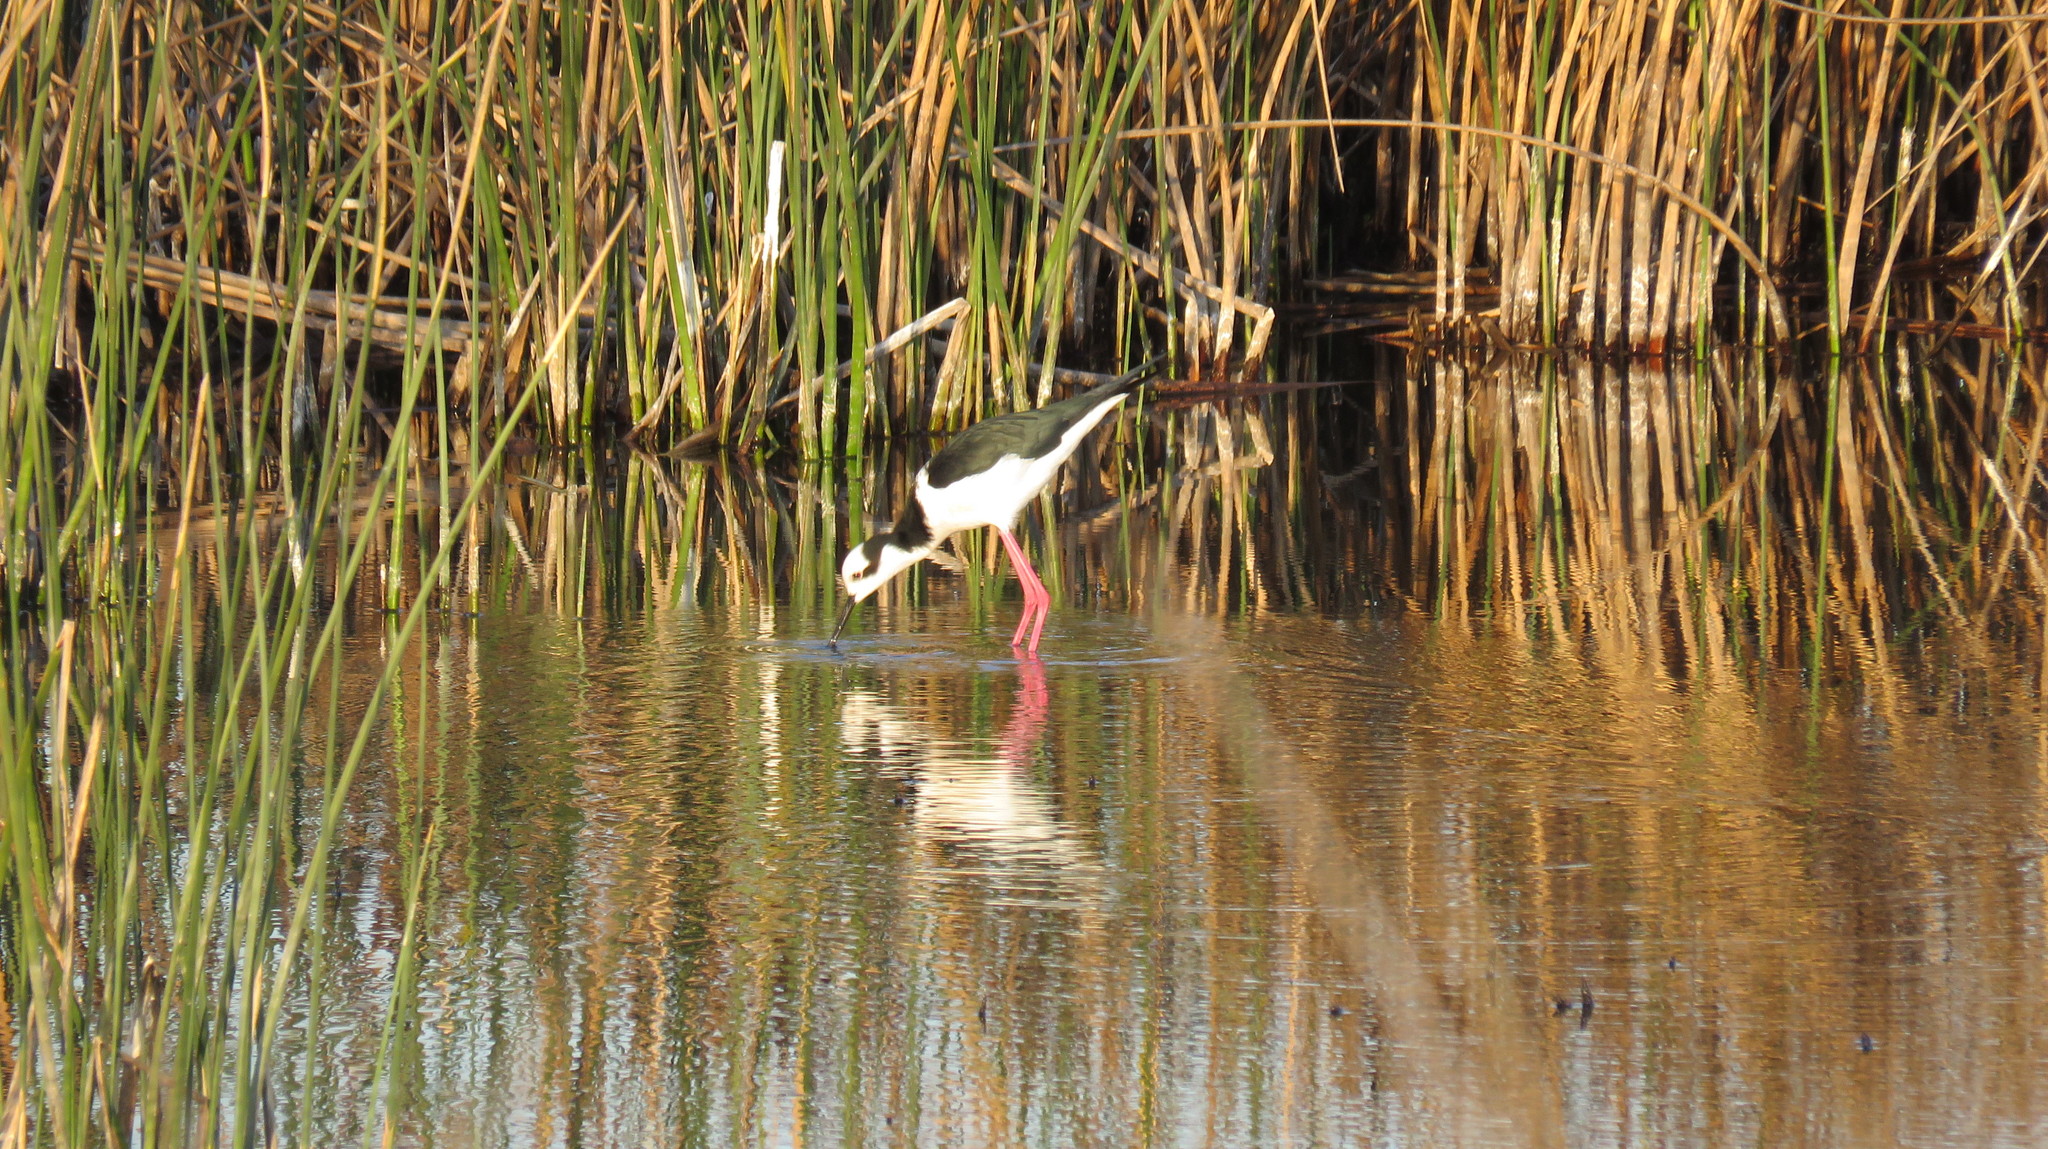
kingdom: Animalia
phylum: Chordata
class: Aves
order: Charadriiformes
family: Recurvirostridae
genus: Himantopus
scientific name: Himantopus mexicanus
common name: Black-necked stilt
